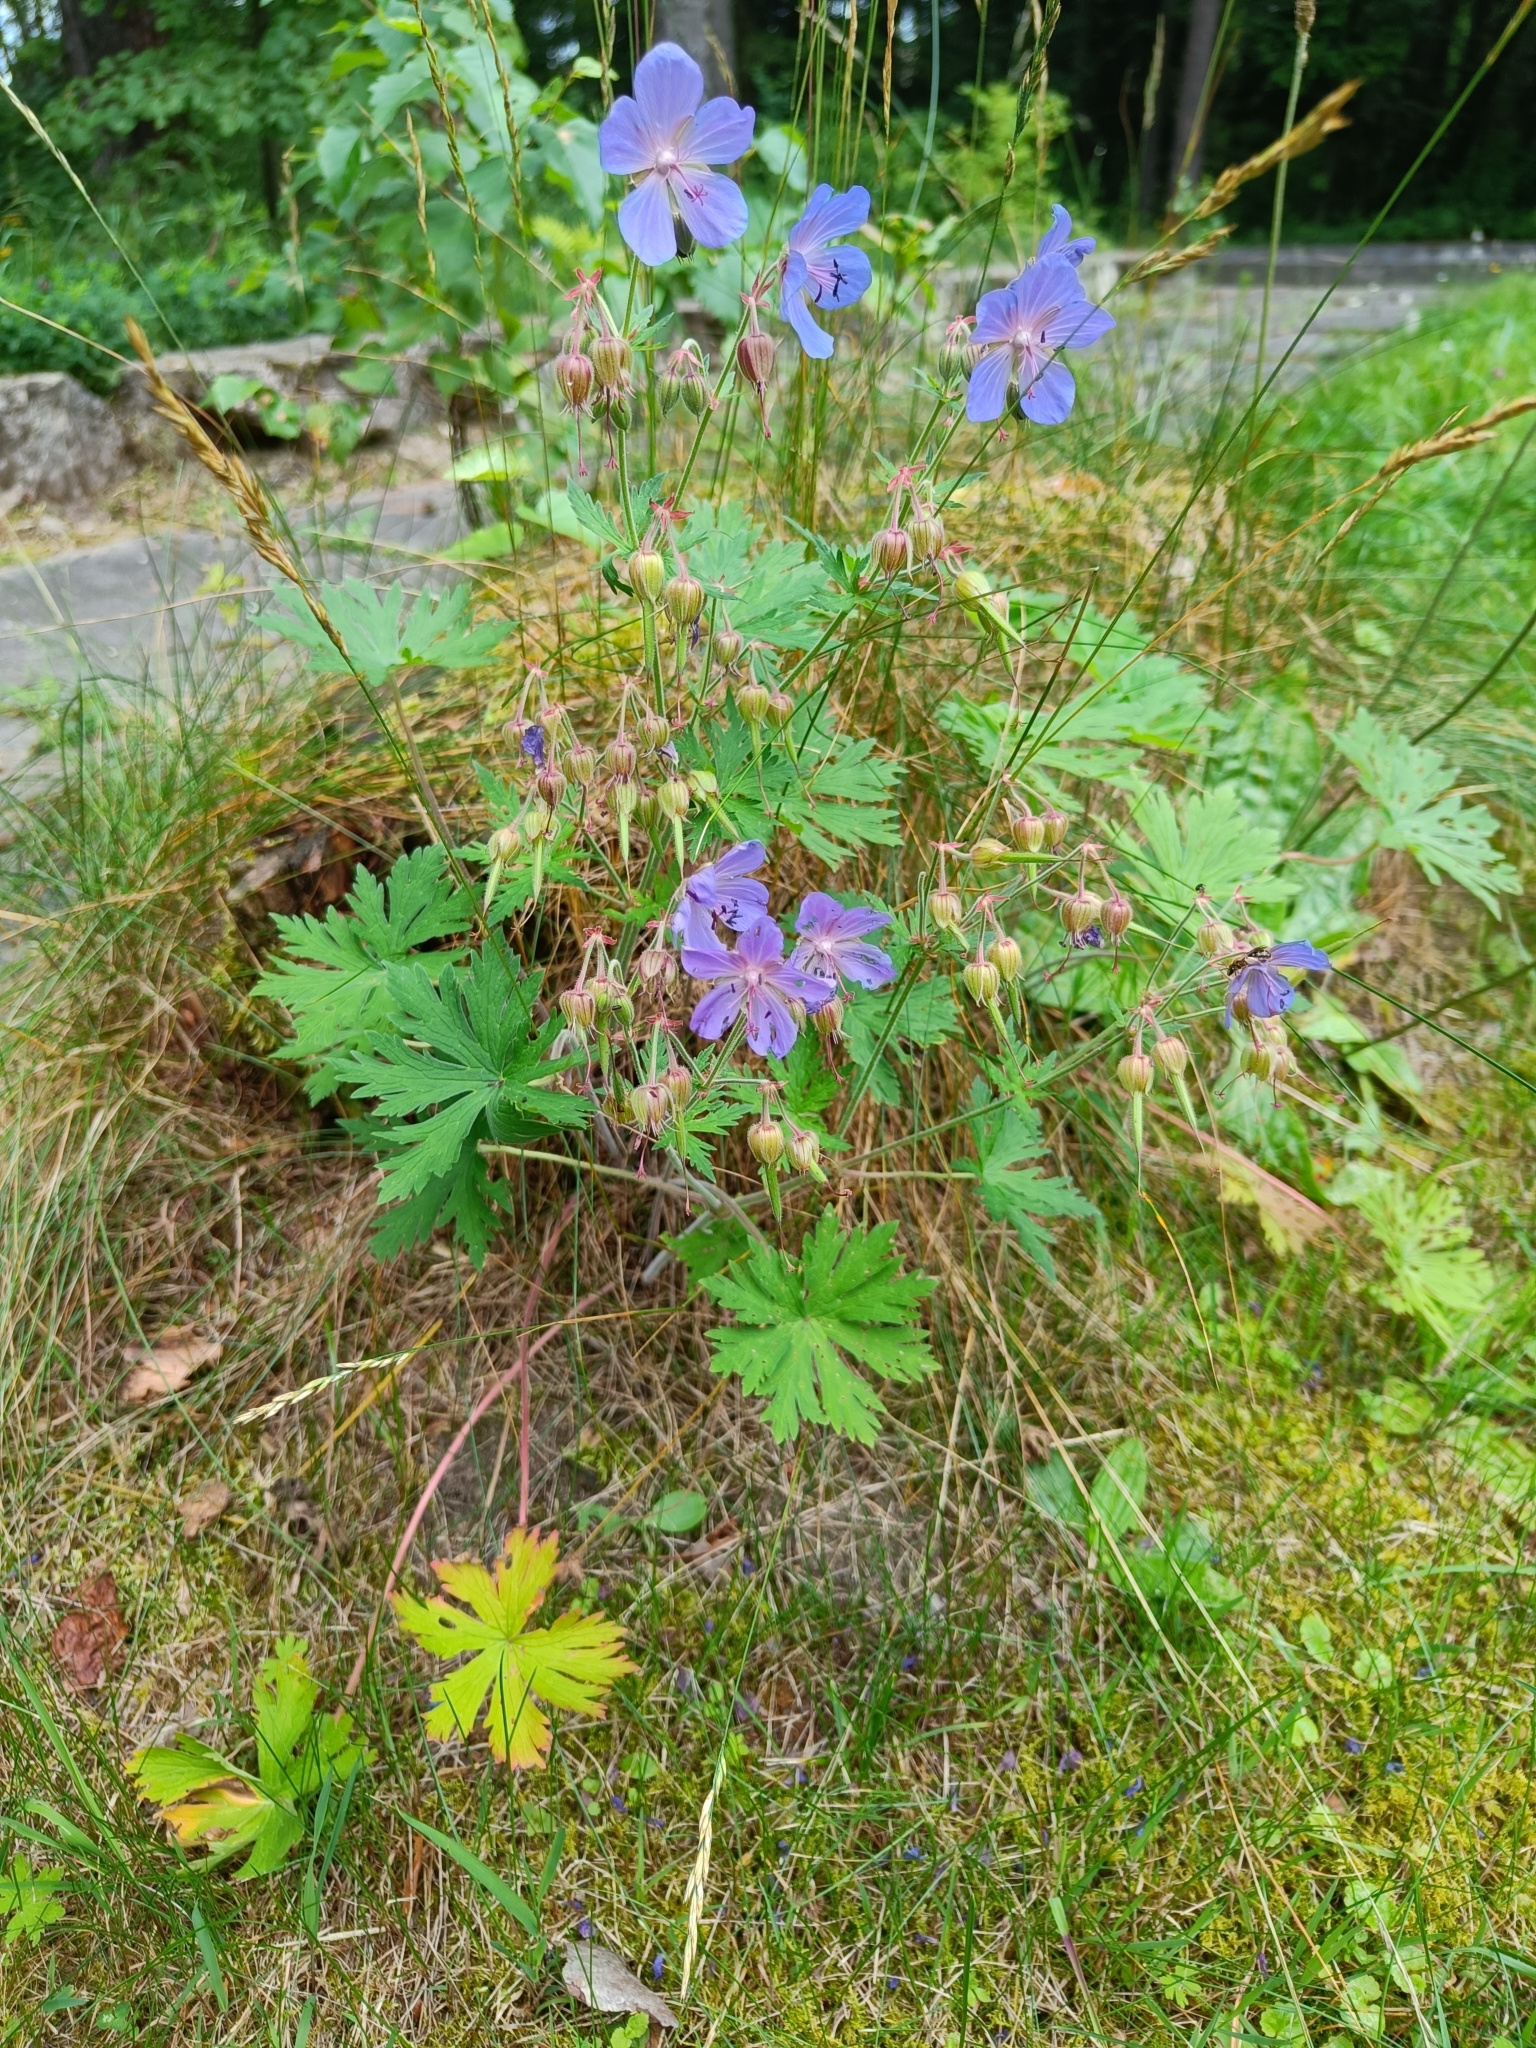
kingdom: Plantae
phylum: Tracheophyta
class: Magnoliopsida
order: Geraniales
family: Geraniaceae
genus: Geranium
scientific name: Geranium pratense
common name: Meadow crane's-bill
